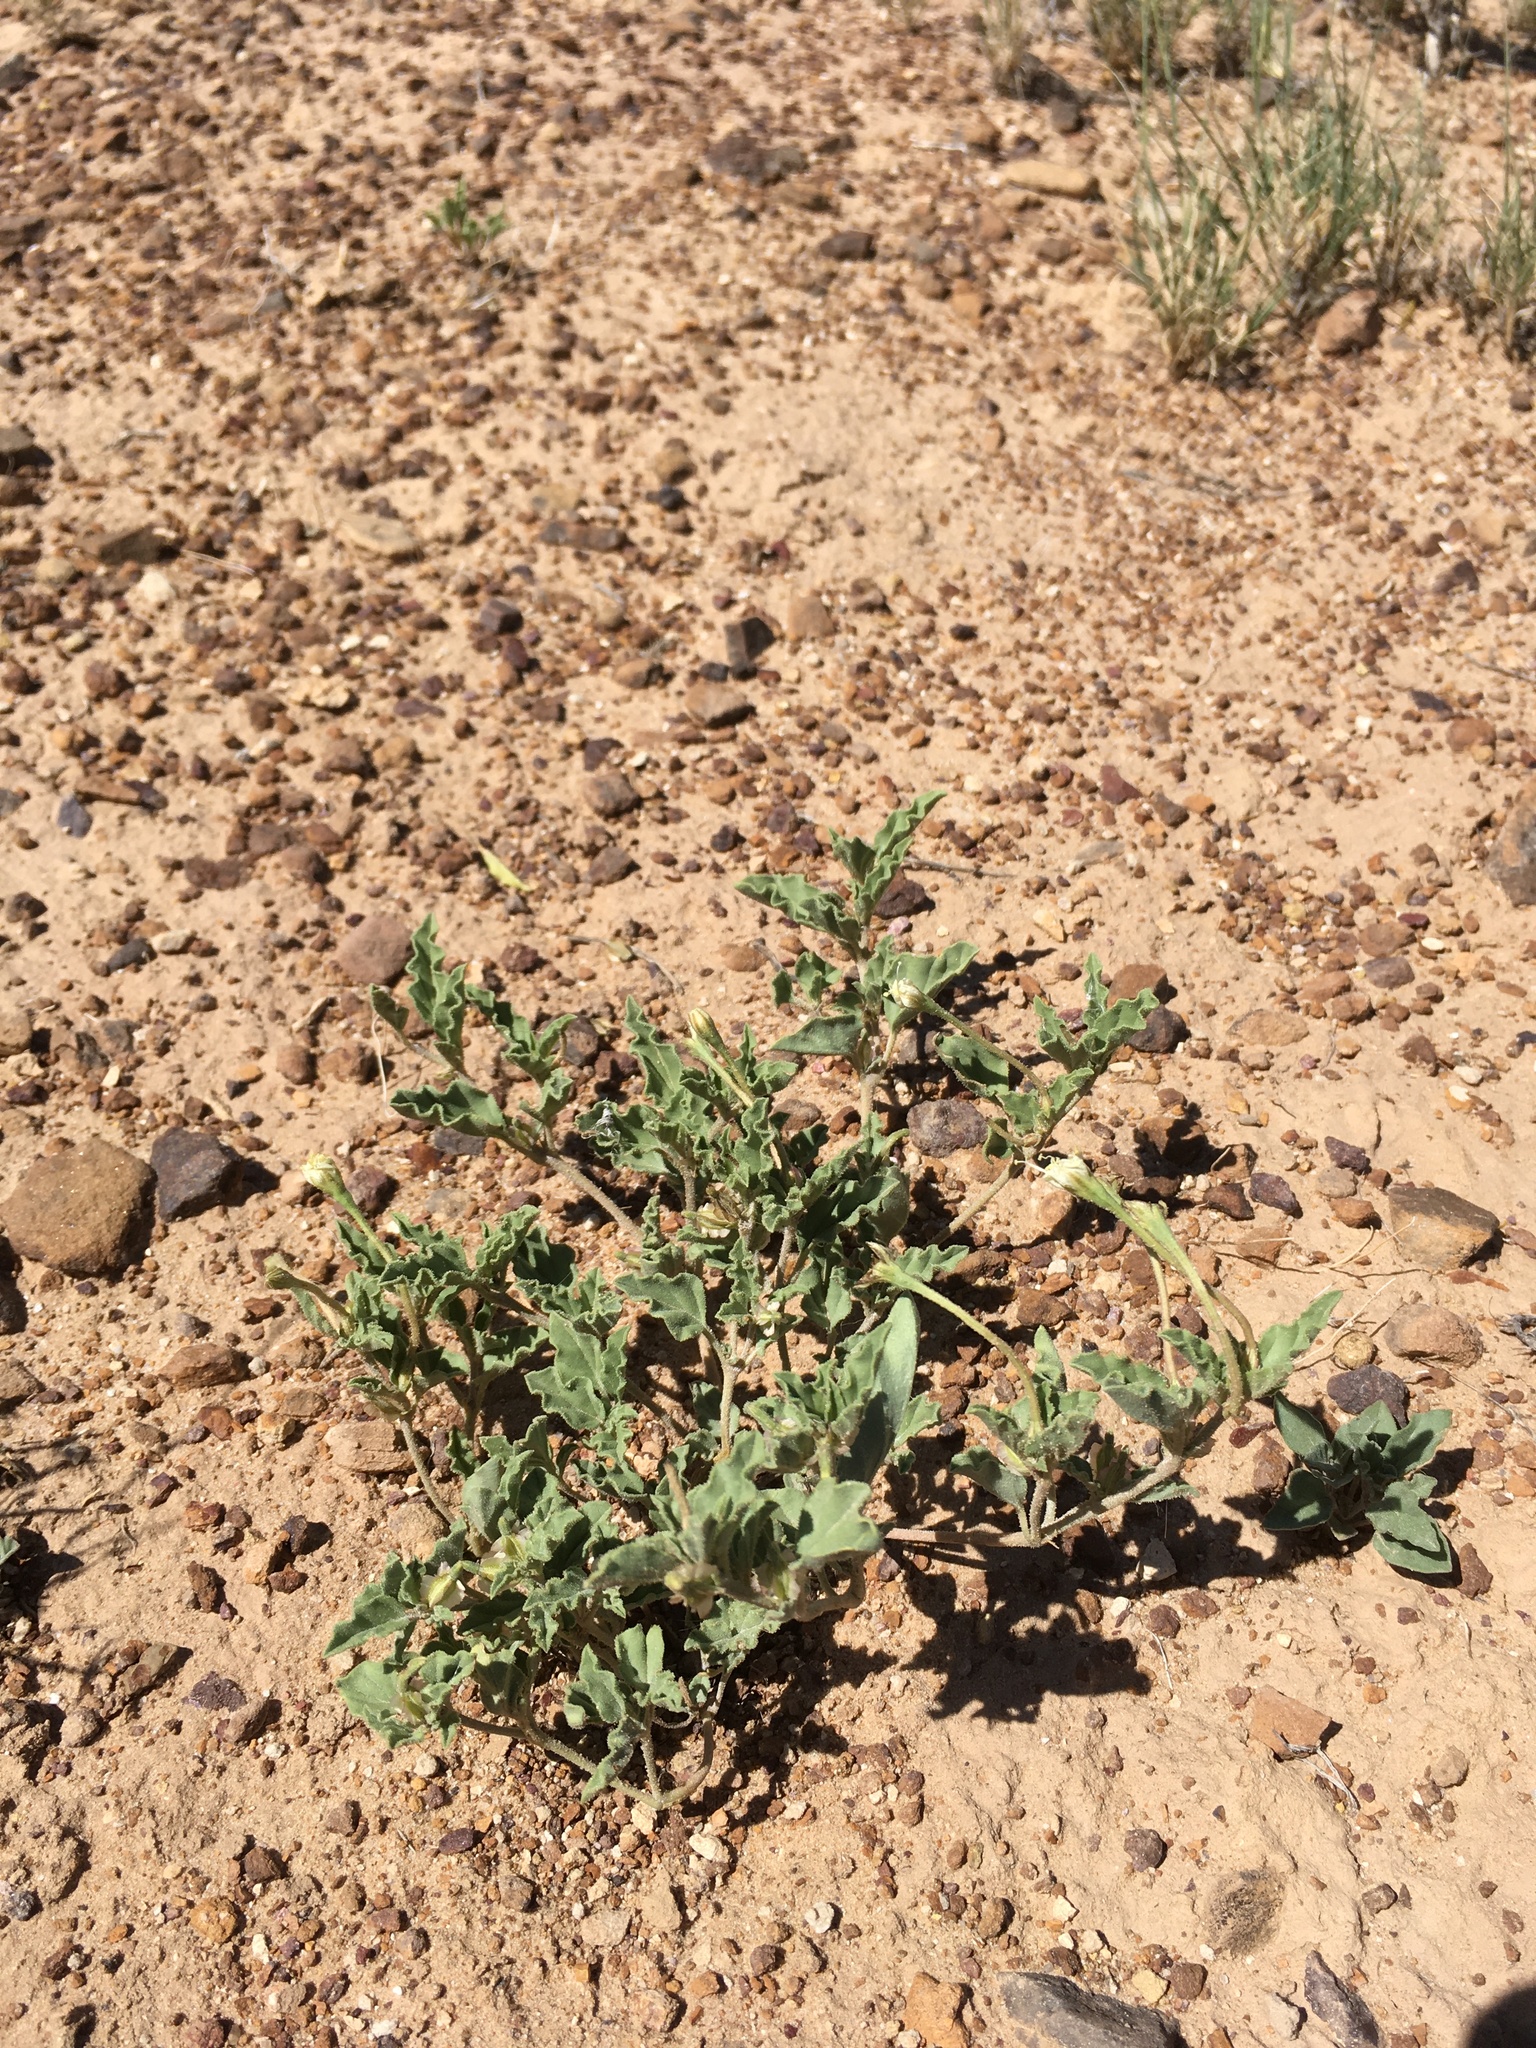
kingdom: Plantae
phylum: Tracheophyta
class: Magnoliopsida
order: Caryophyllales
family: Nyctaginaceae
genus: Acleisanthes
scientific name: Acleisanthes diffusa
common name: Spreading moonpod
